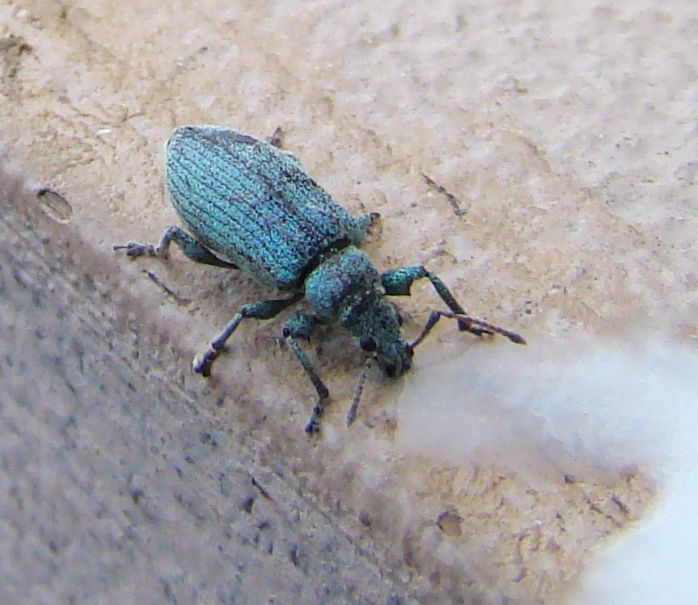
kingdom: Animalia
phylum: Arthropoda
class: Insecta
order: Coleoptera
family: Curculionidae
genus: Phyllobius
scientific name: Phyllobius maculicornis
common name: Green leaf weevil
